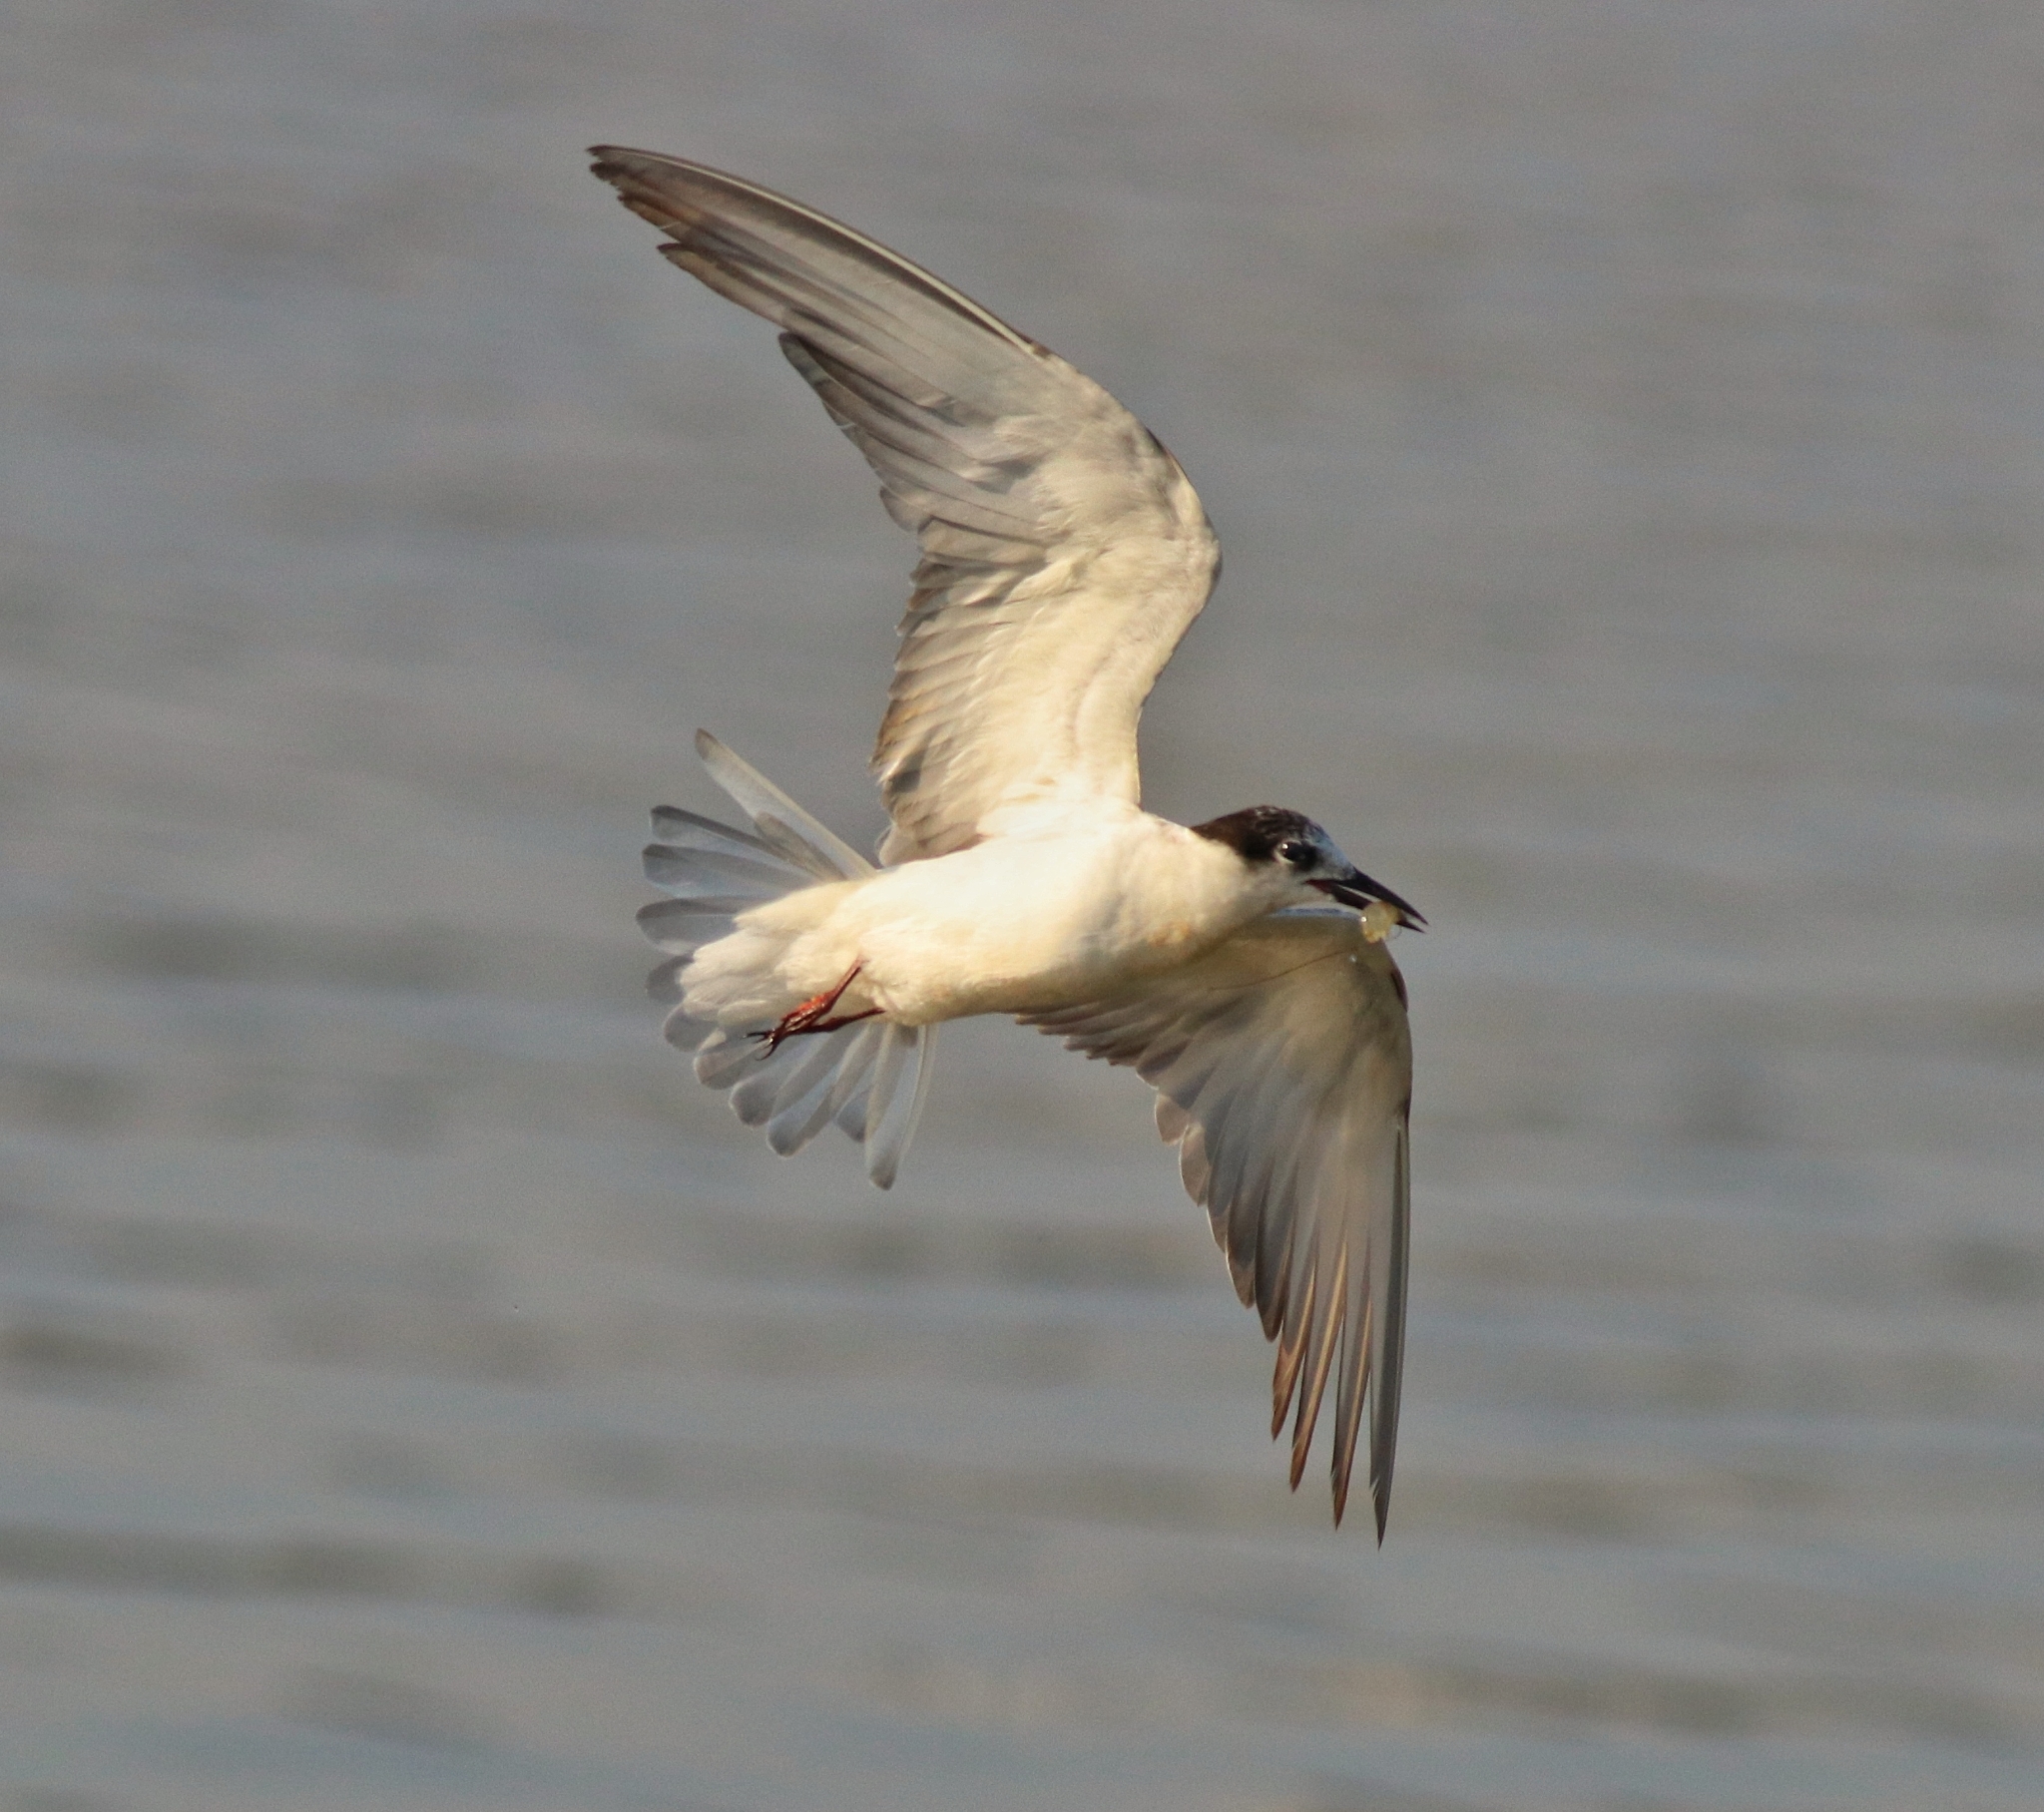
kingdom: Animalia
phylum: Chordata
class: Aves
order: Charadriiformes
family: Laridae
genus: Chlidonias
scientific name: Chlidonias hybrida
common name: Whiskered tern
